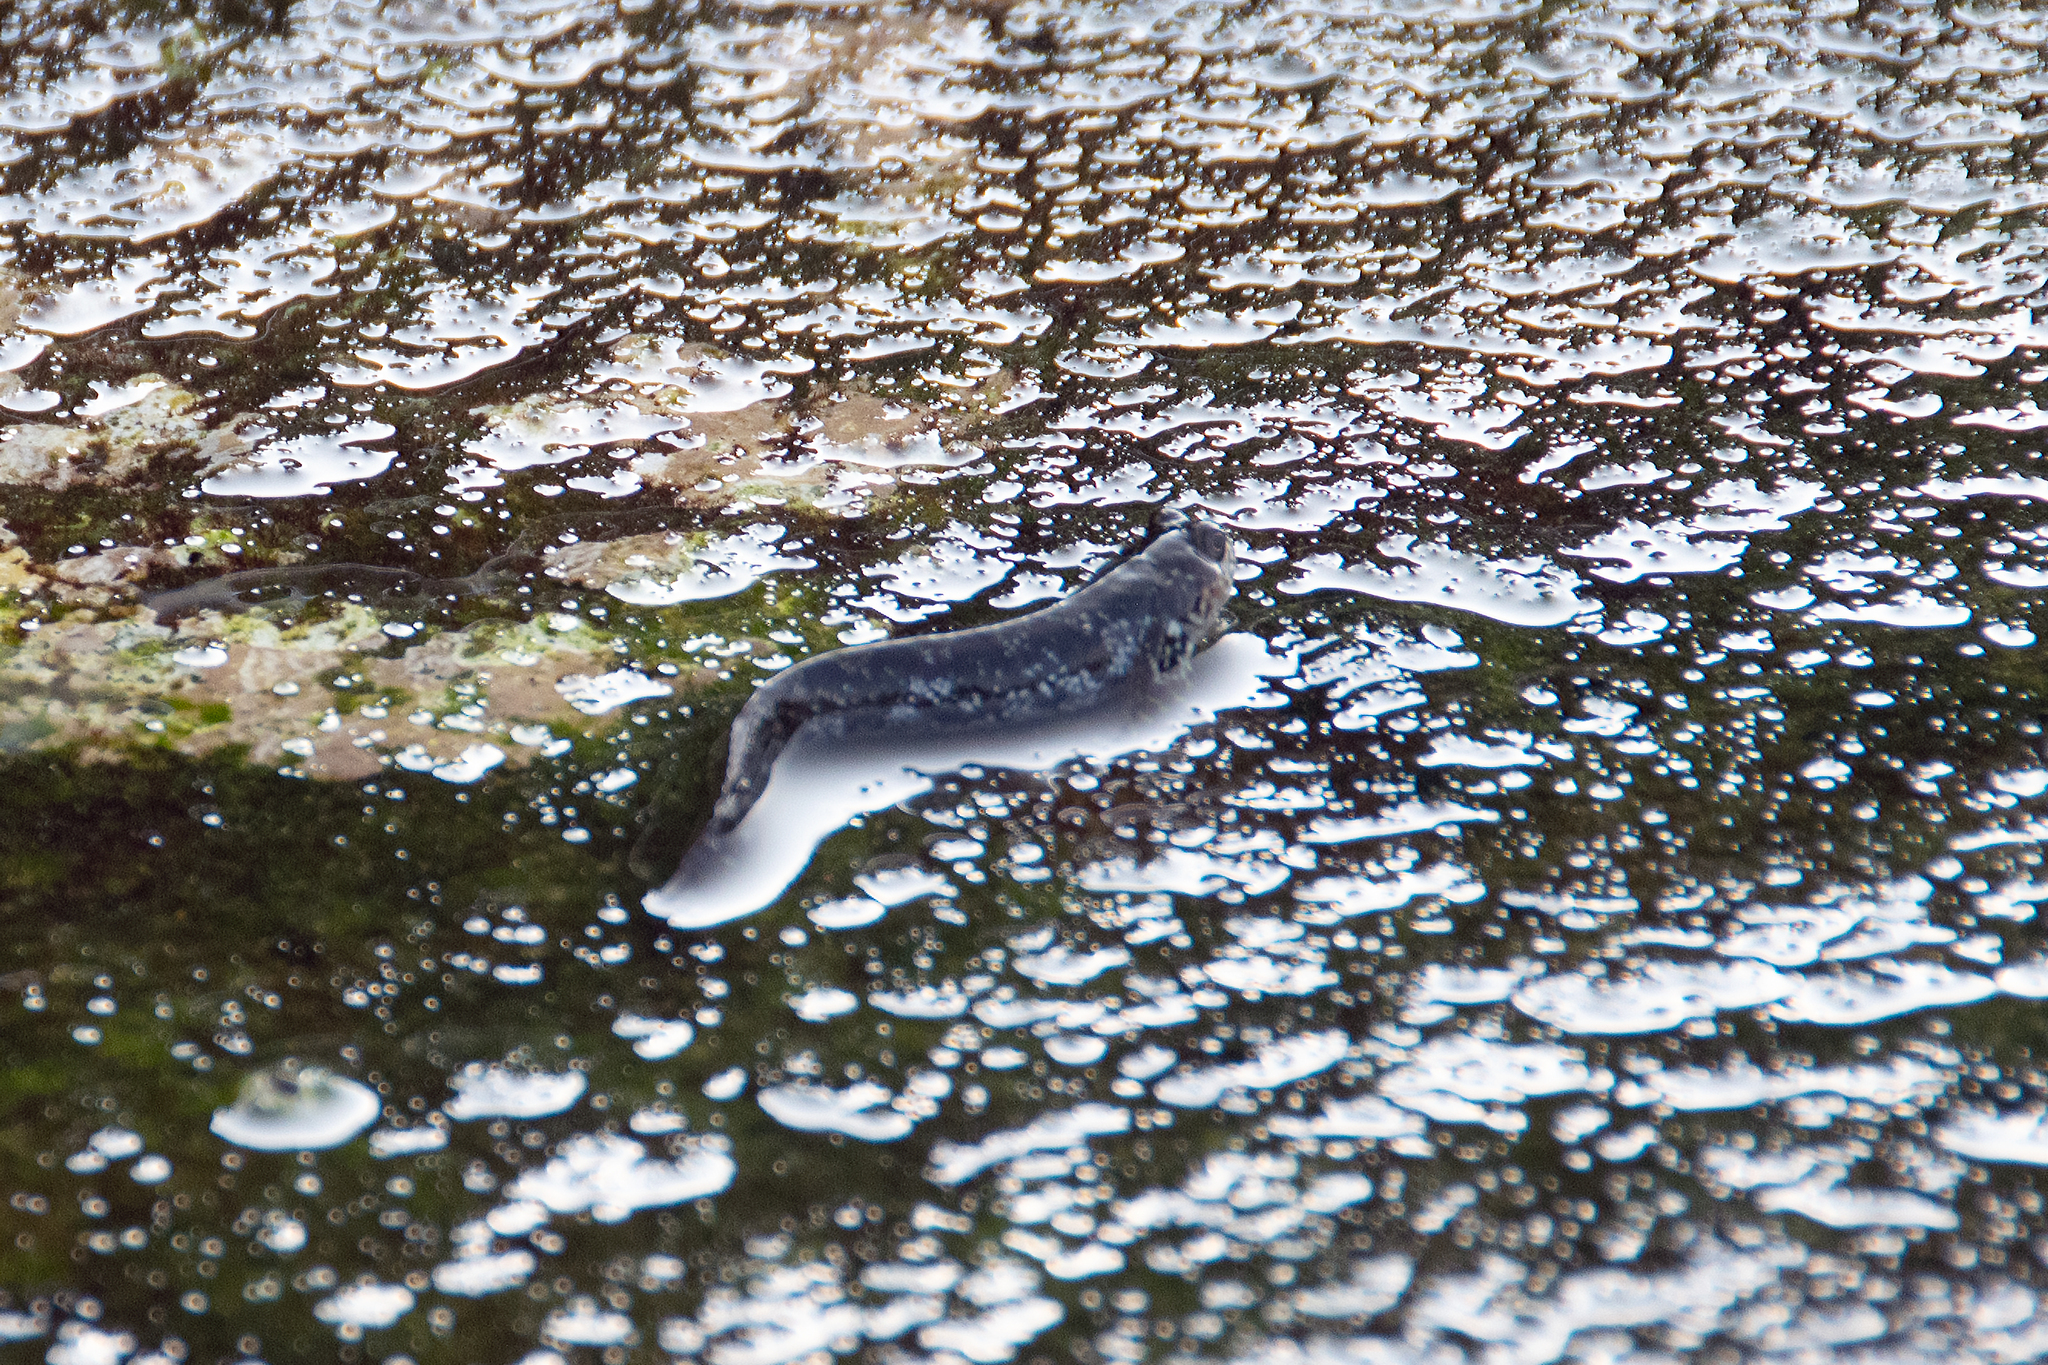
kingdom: Animalia
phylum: Chordata
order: Perciformes
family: Labrisomidae
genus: Dialommus
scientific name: Dialommus fuscus
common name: Galápagos four-eyed blenny
